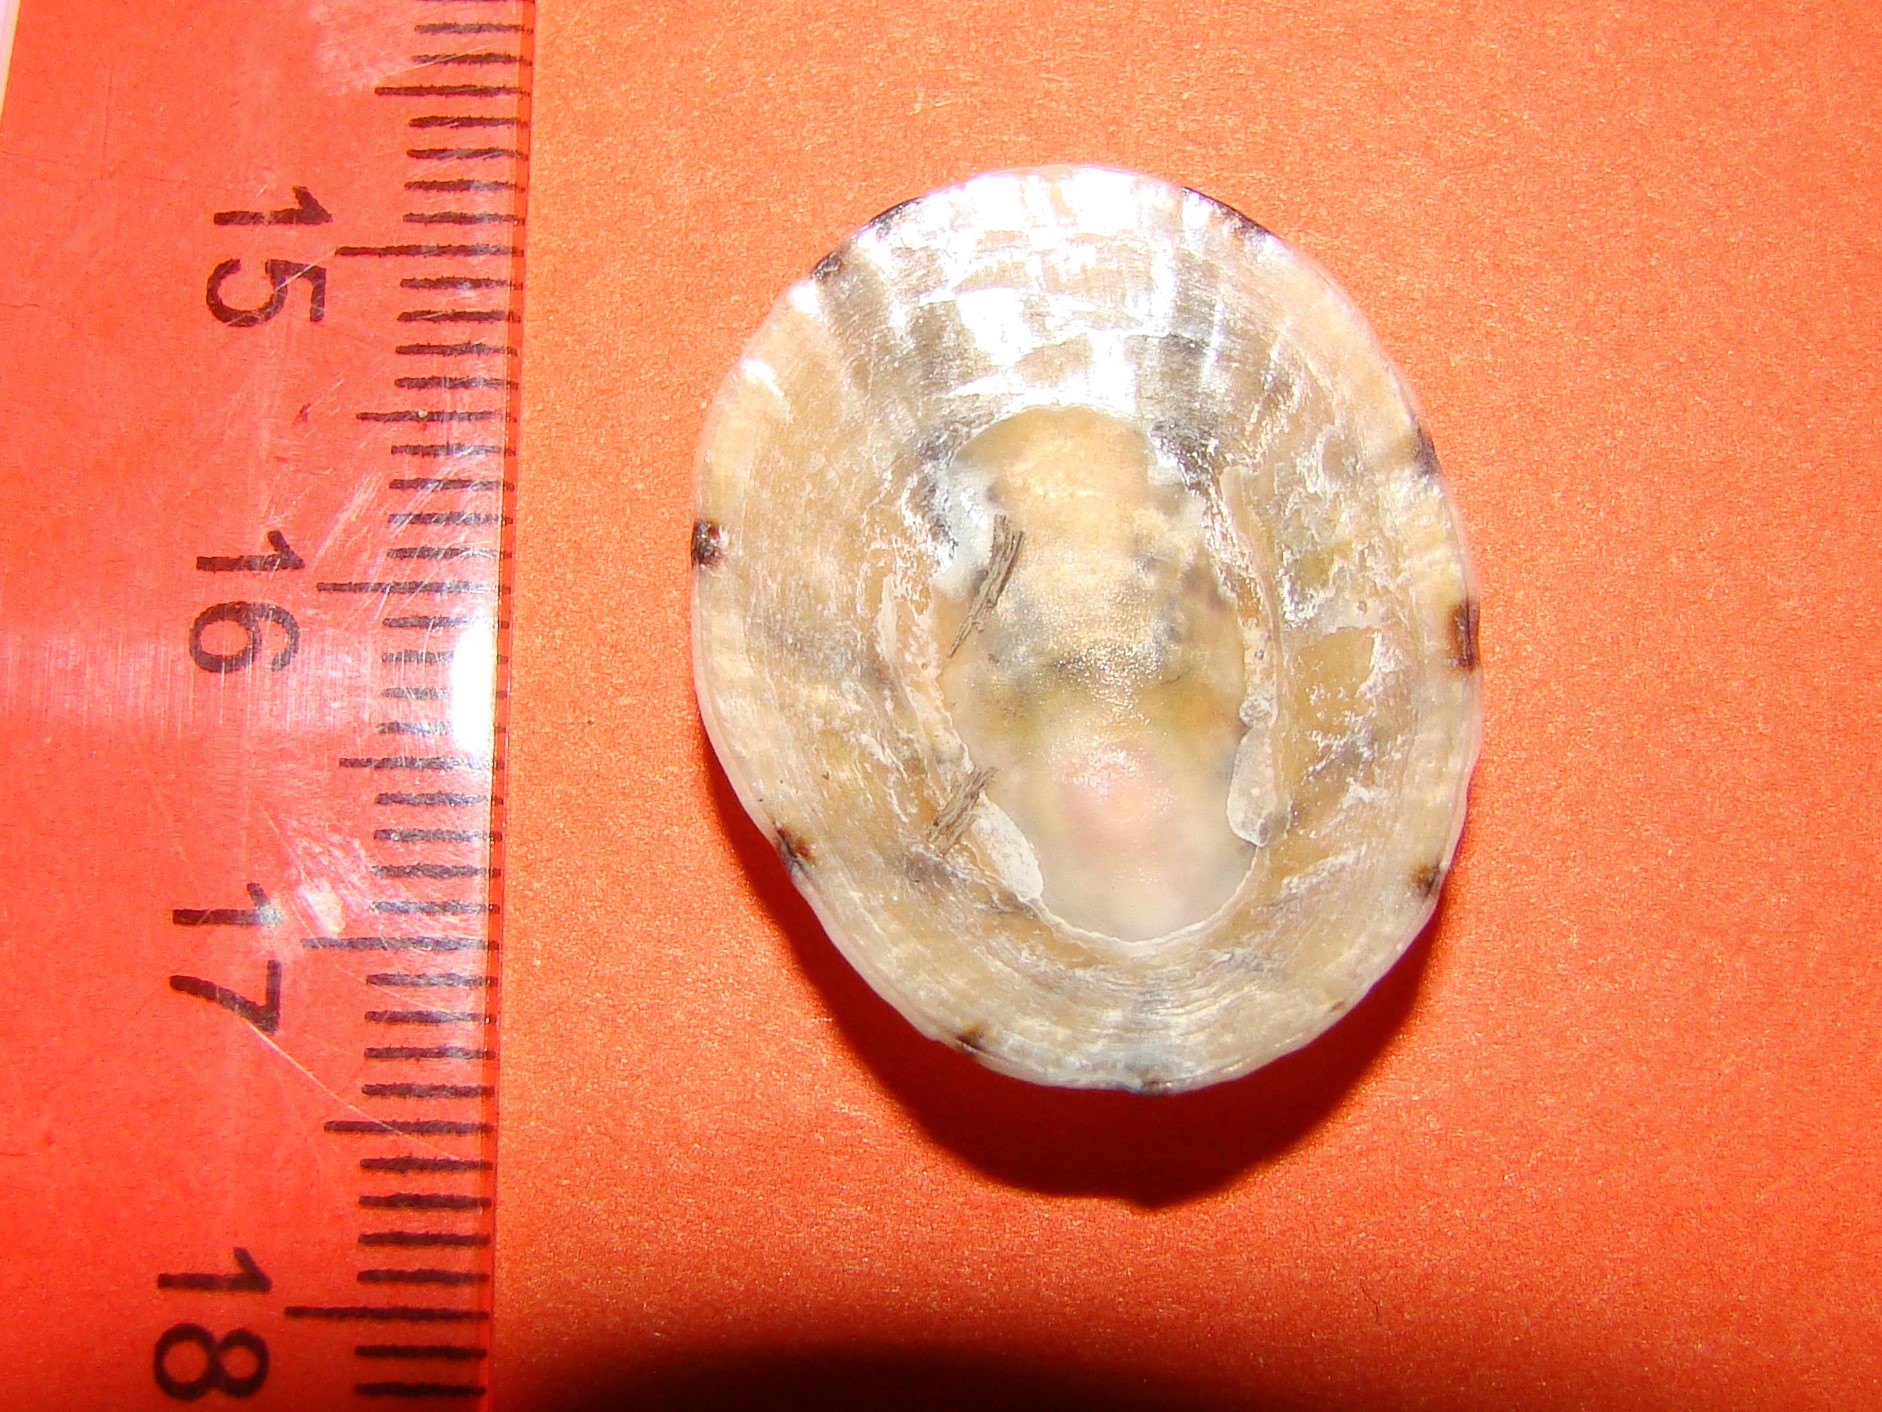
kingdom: Animalia
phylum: Mollusca
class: Gastropoda
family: Nacellidae
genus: Cellana
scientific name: Cellana radians
